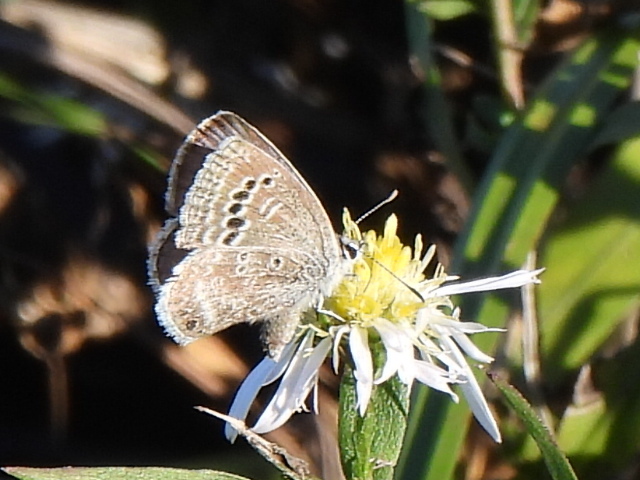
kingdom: Animalia
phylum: Arthropoda
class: Insecta
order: Lepidoptera
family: Lycaenidae
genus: Echinargus
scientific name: Echinargus isola
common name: Reakirt's blue
